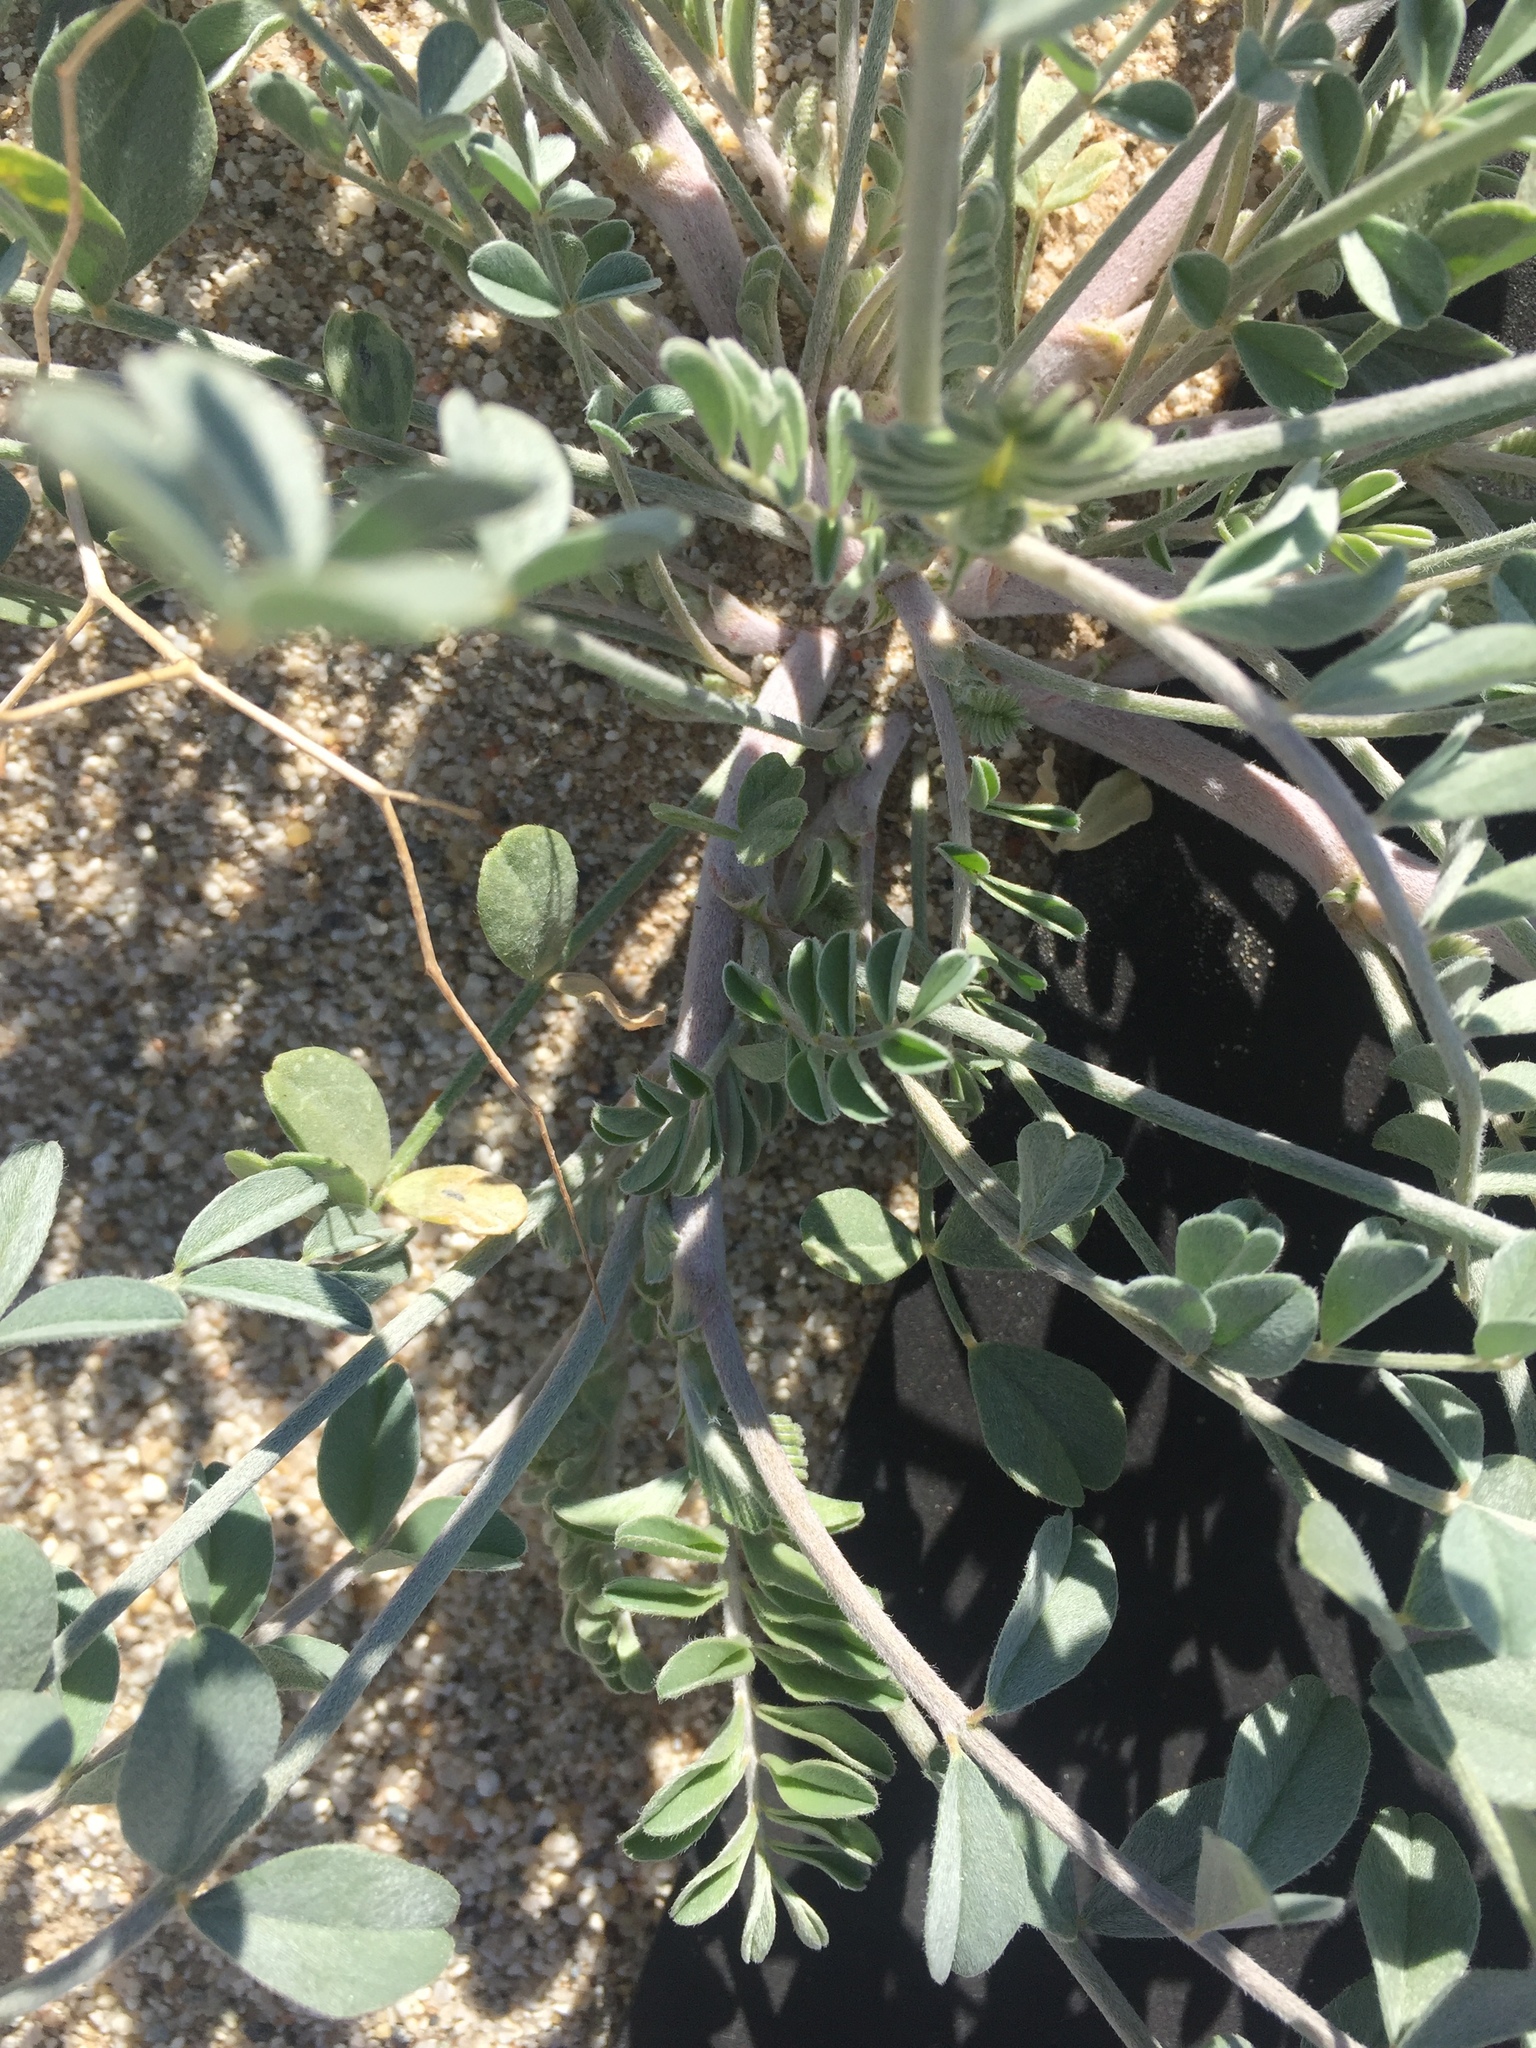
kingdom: Plantae
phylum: Tracheophyta
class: Magnoliopsida
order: Fabales
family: Fabaceae
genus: Astragalus
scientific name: Astragalus lentiginosus
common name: Freckled milkvetch
